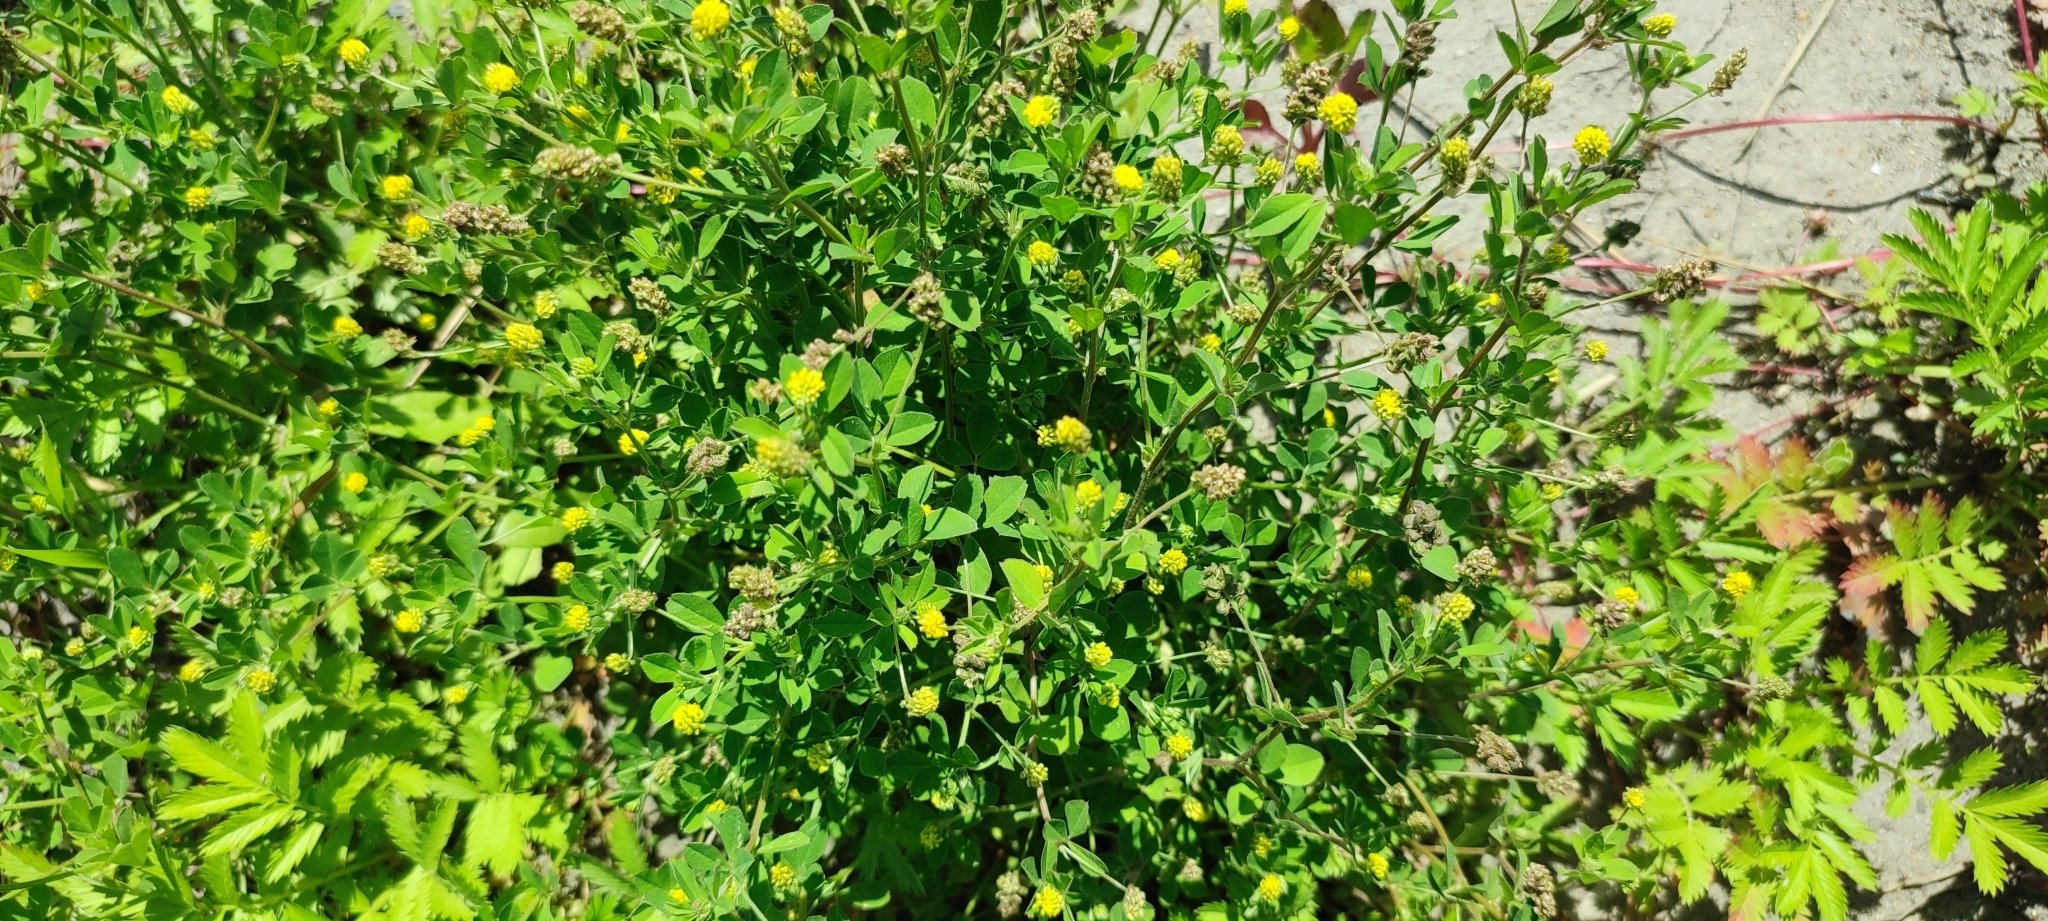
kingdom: Plantae
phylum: Tracheophyta
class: Magnoliopsida
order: Fabales
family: Fabaceae
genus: Medicago
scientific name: Medicago lupulina
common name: Black medick
